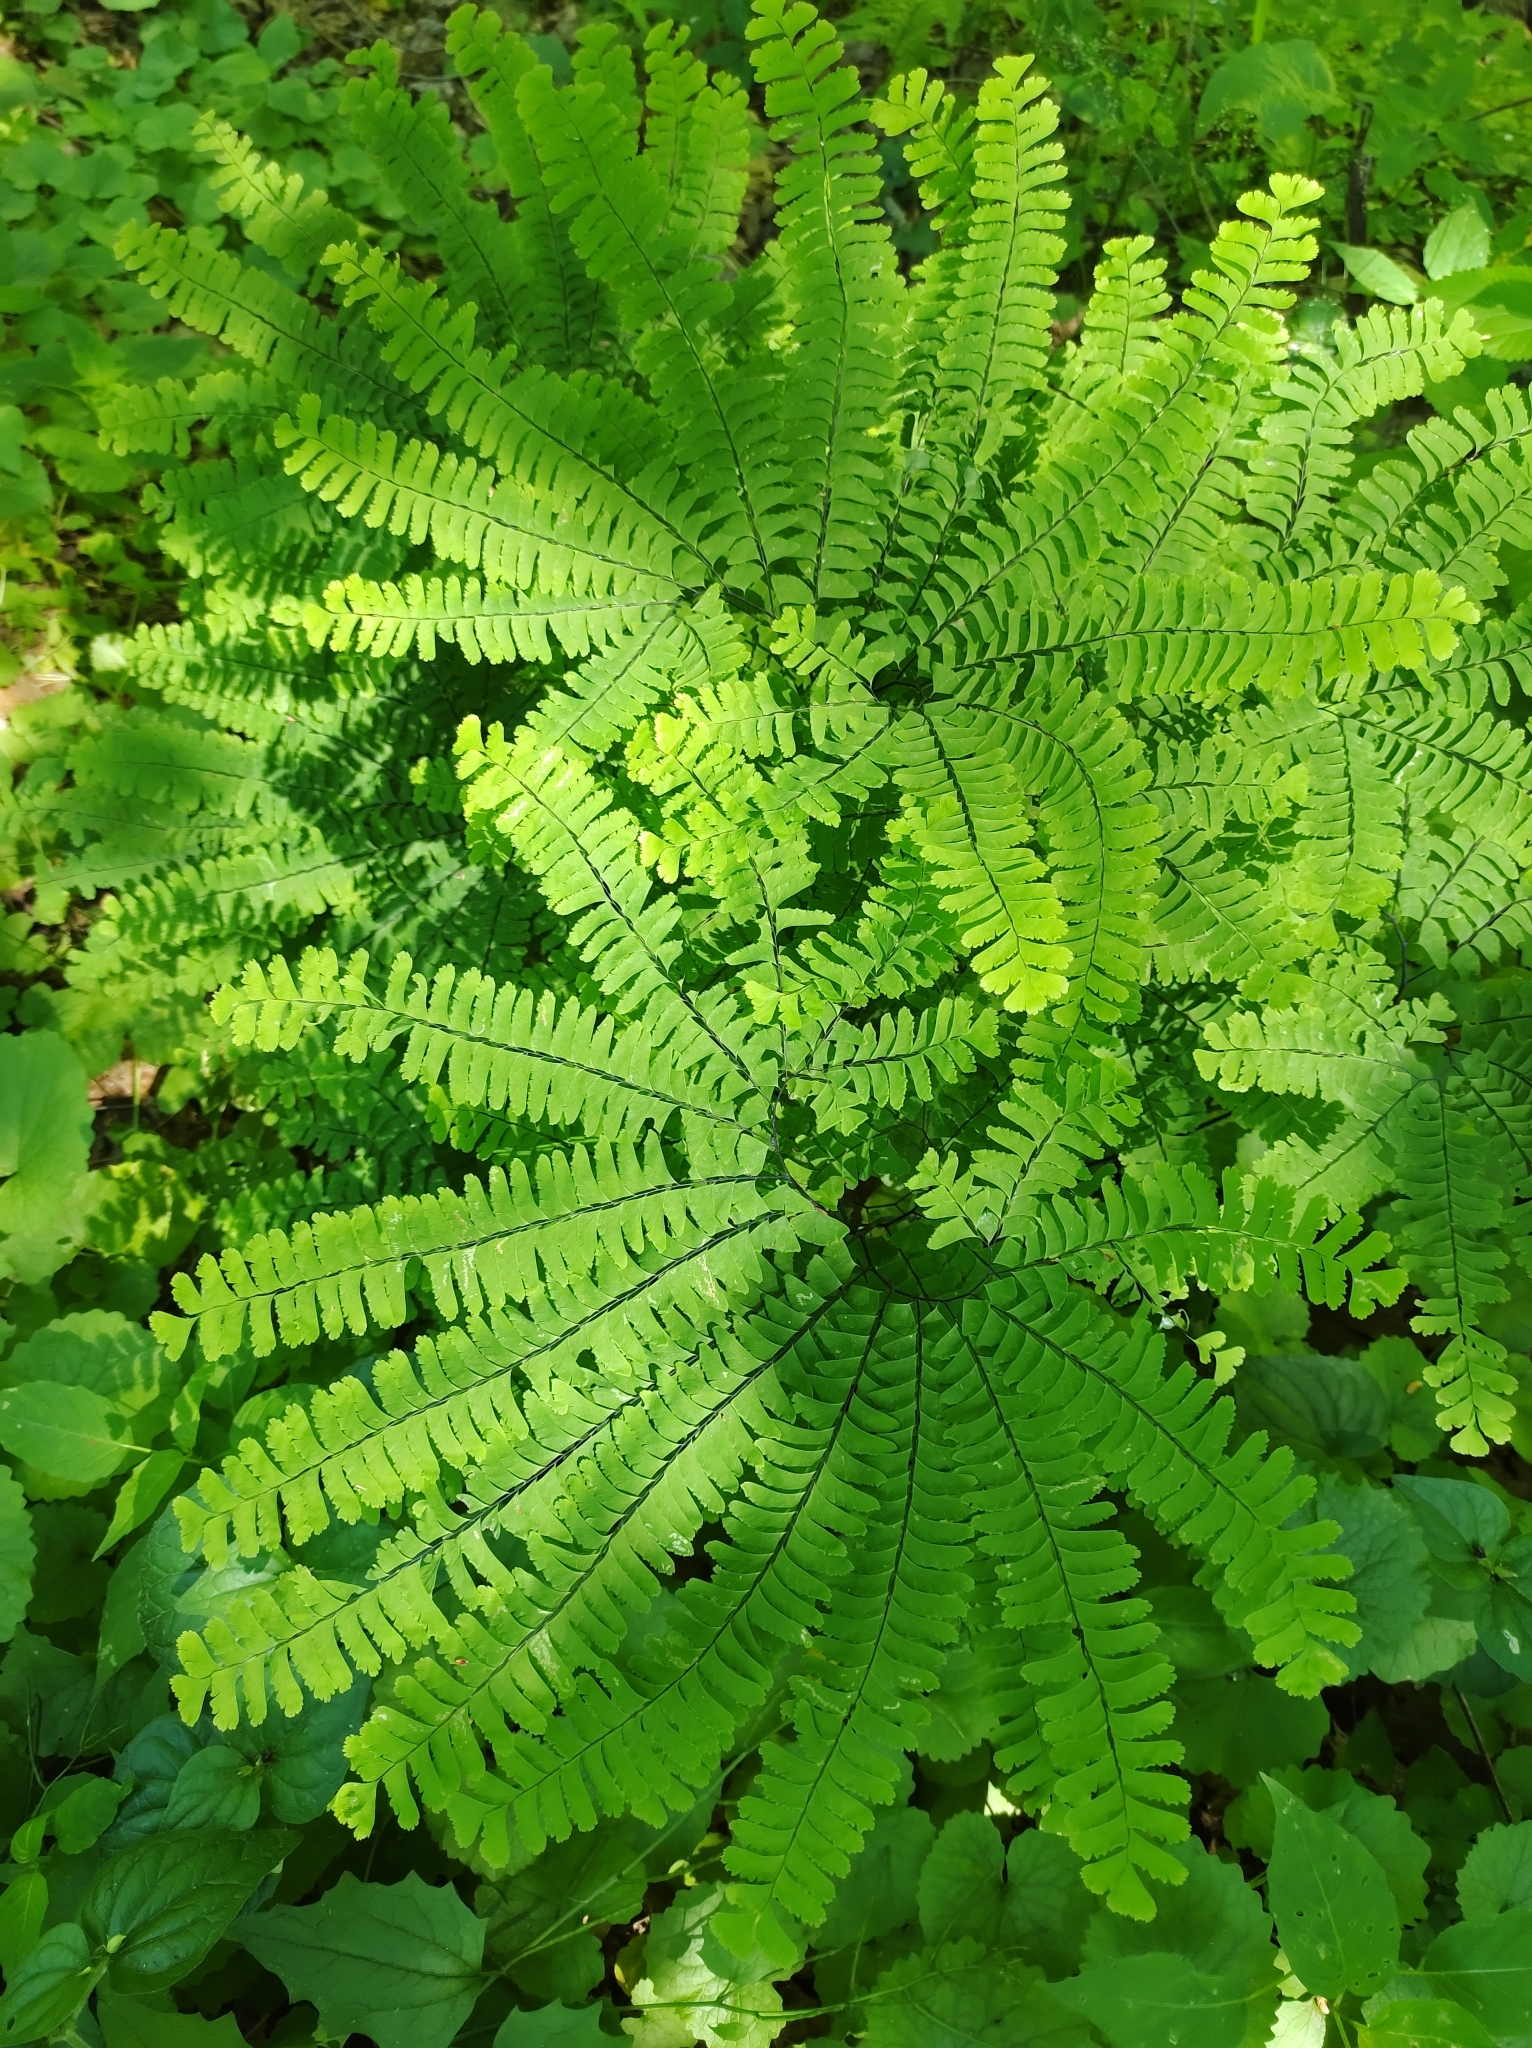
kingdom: Plantae
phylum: Tracheophyta
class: Polypodiopsida
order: Polypodiales
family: Pteridaceae
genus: Adiantum
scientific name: Adiantum pedatum
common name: Five-finger fern
